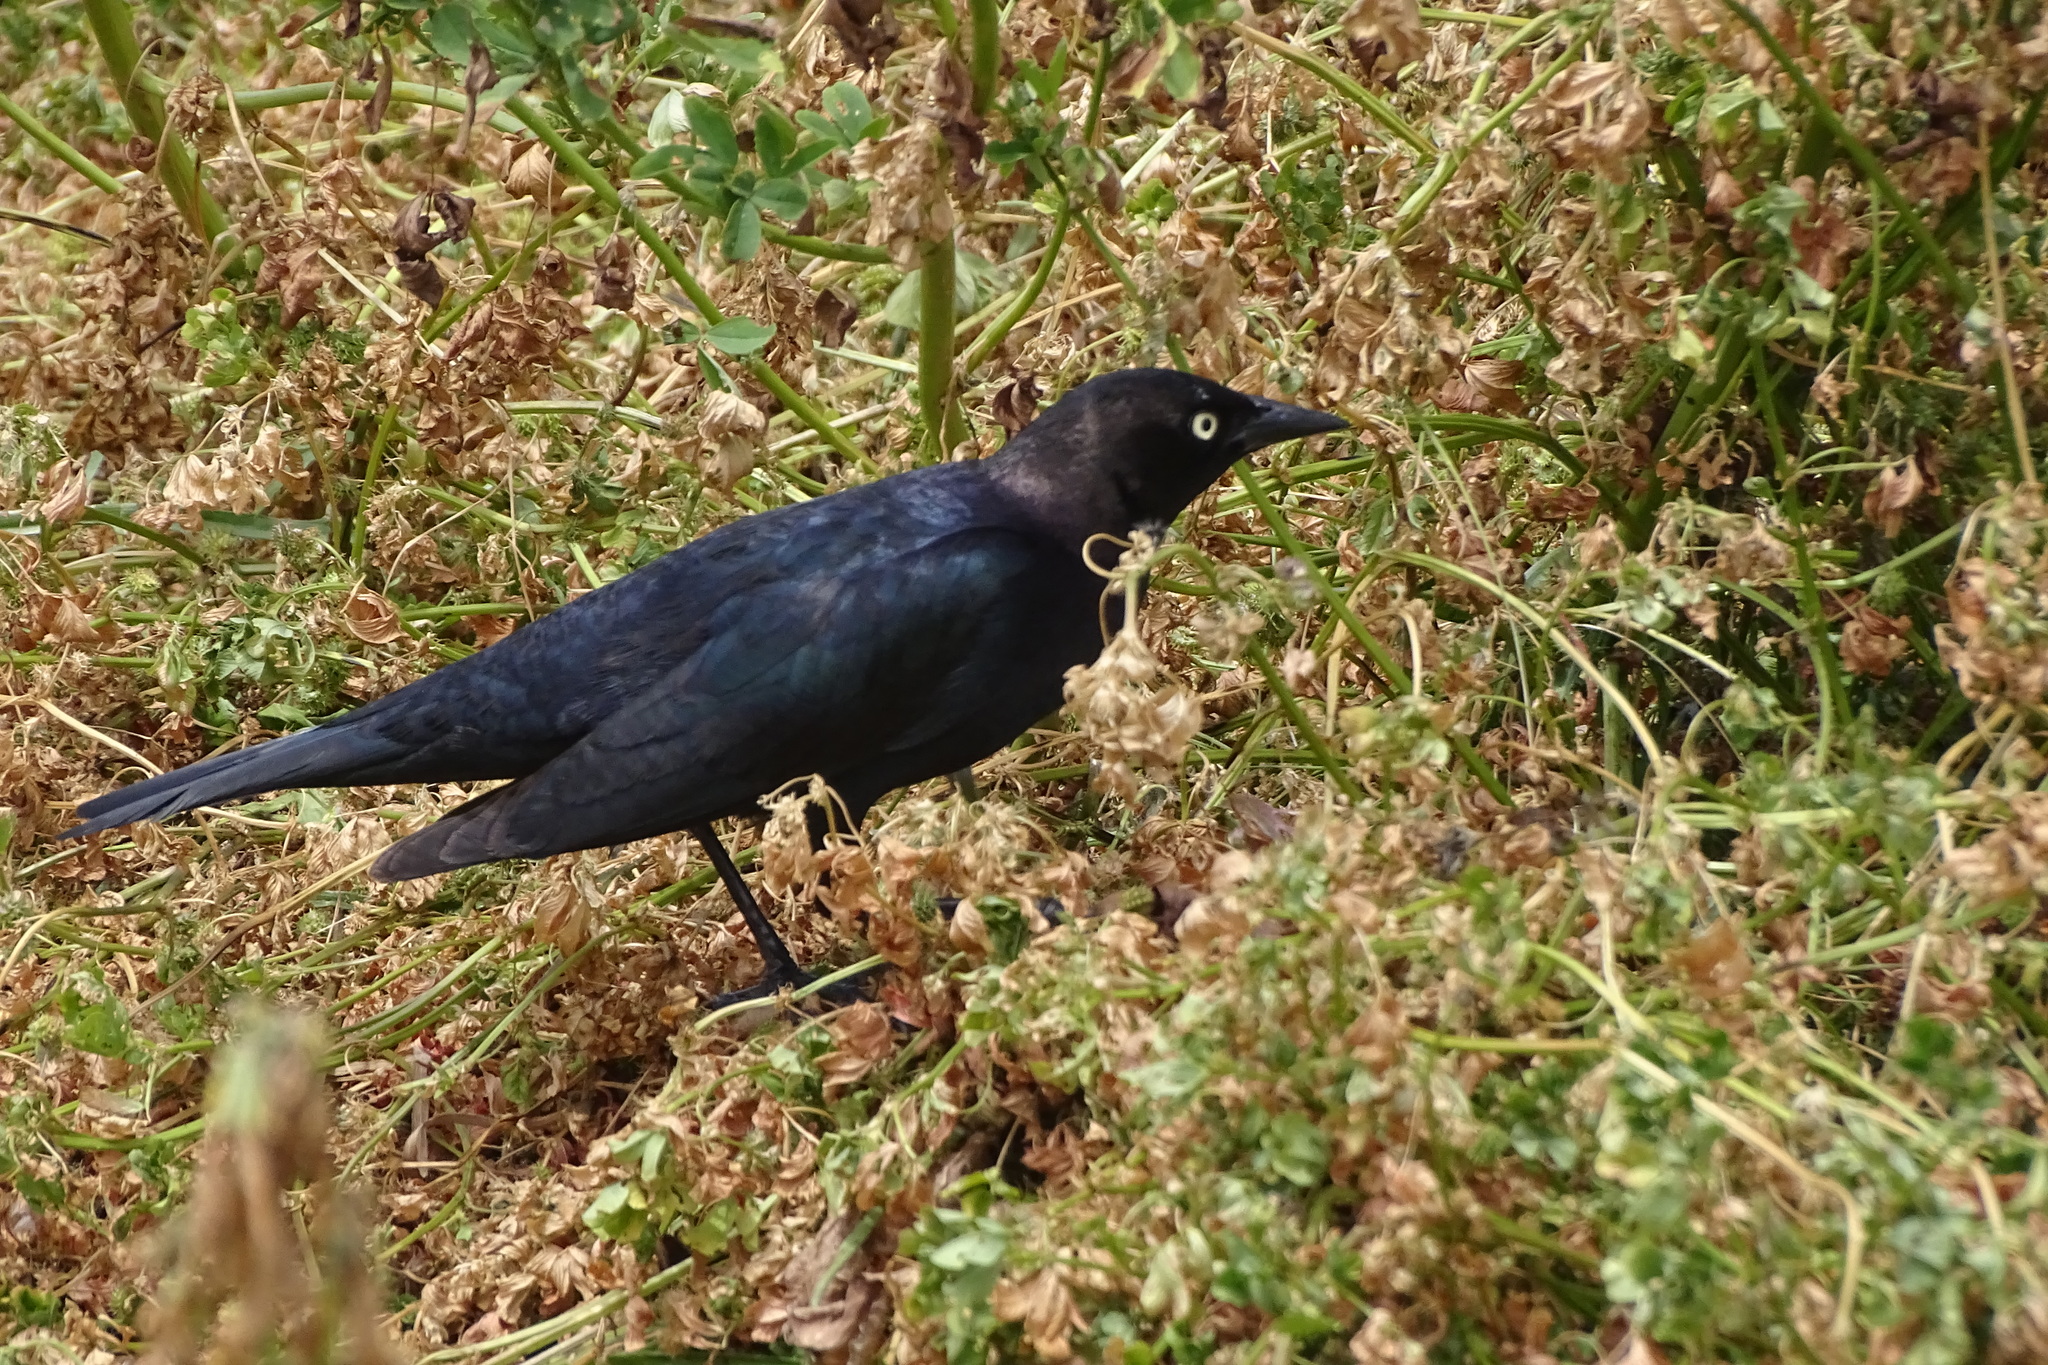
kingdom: Animalia
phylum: Chordata
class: Aves
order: Passeriformes
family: Icteridae
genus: Euphagus
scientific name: Euphagus cyanocephalus
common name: Brewer's blackbird
